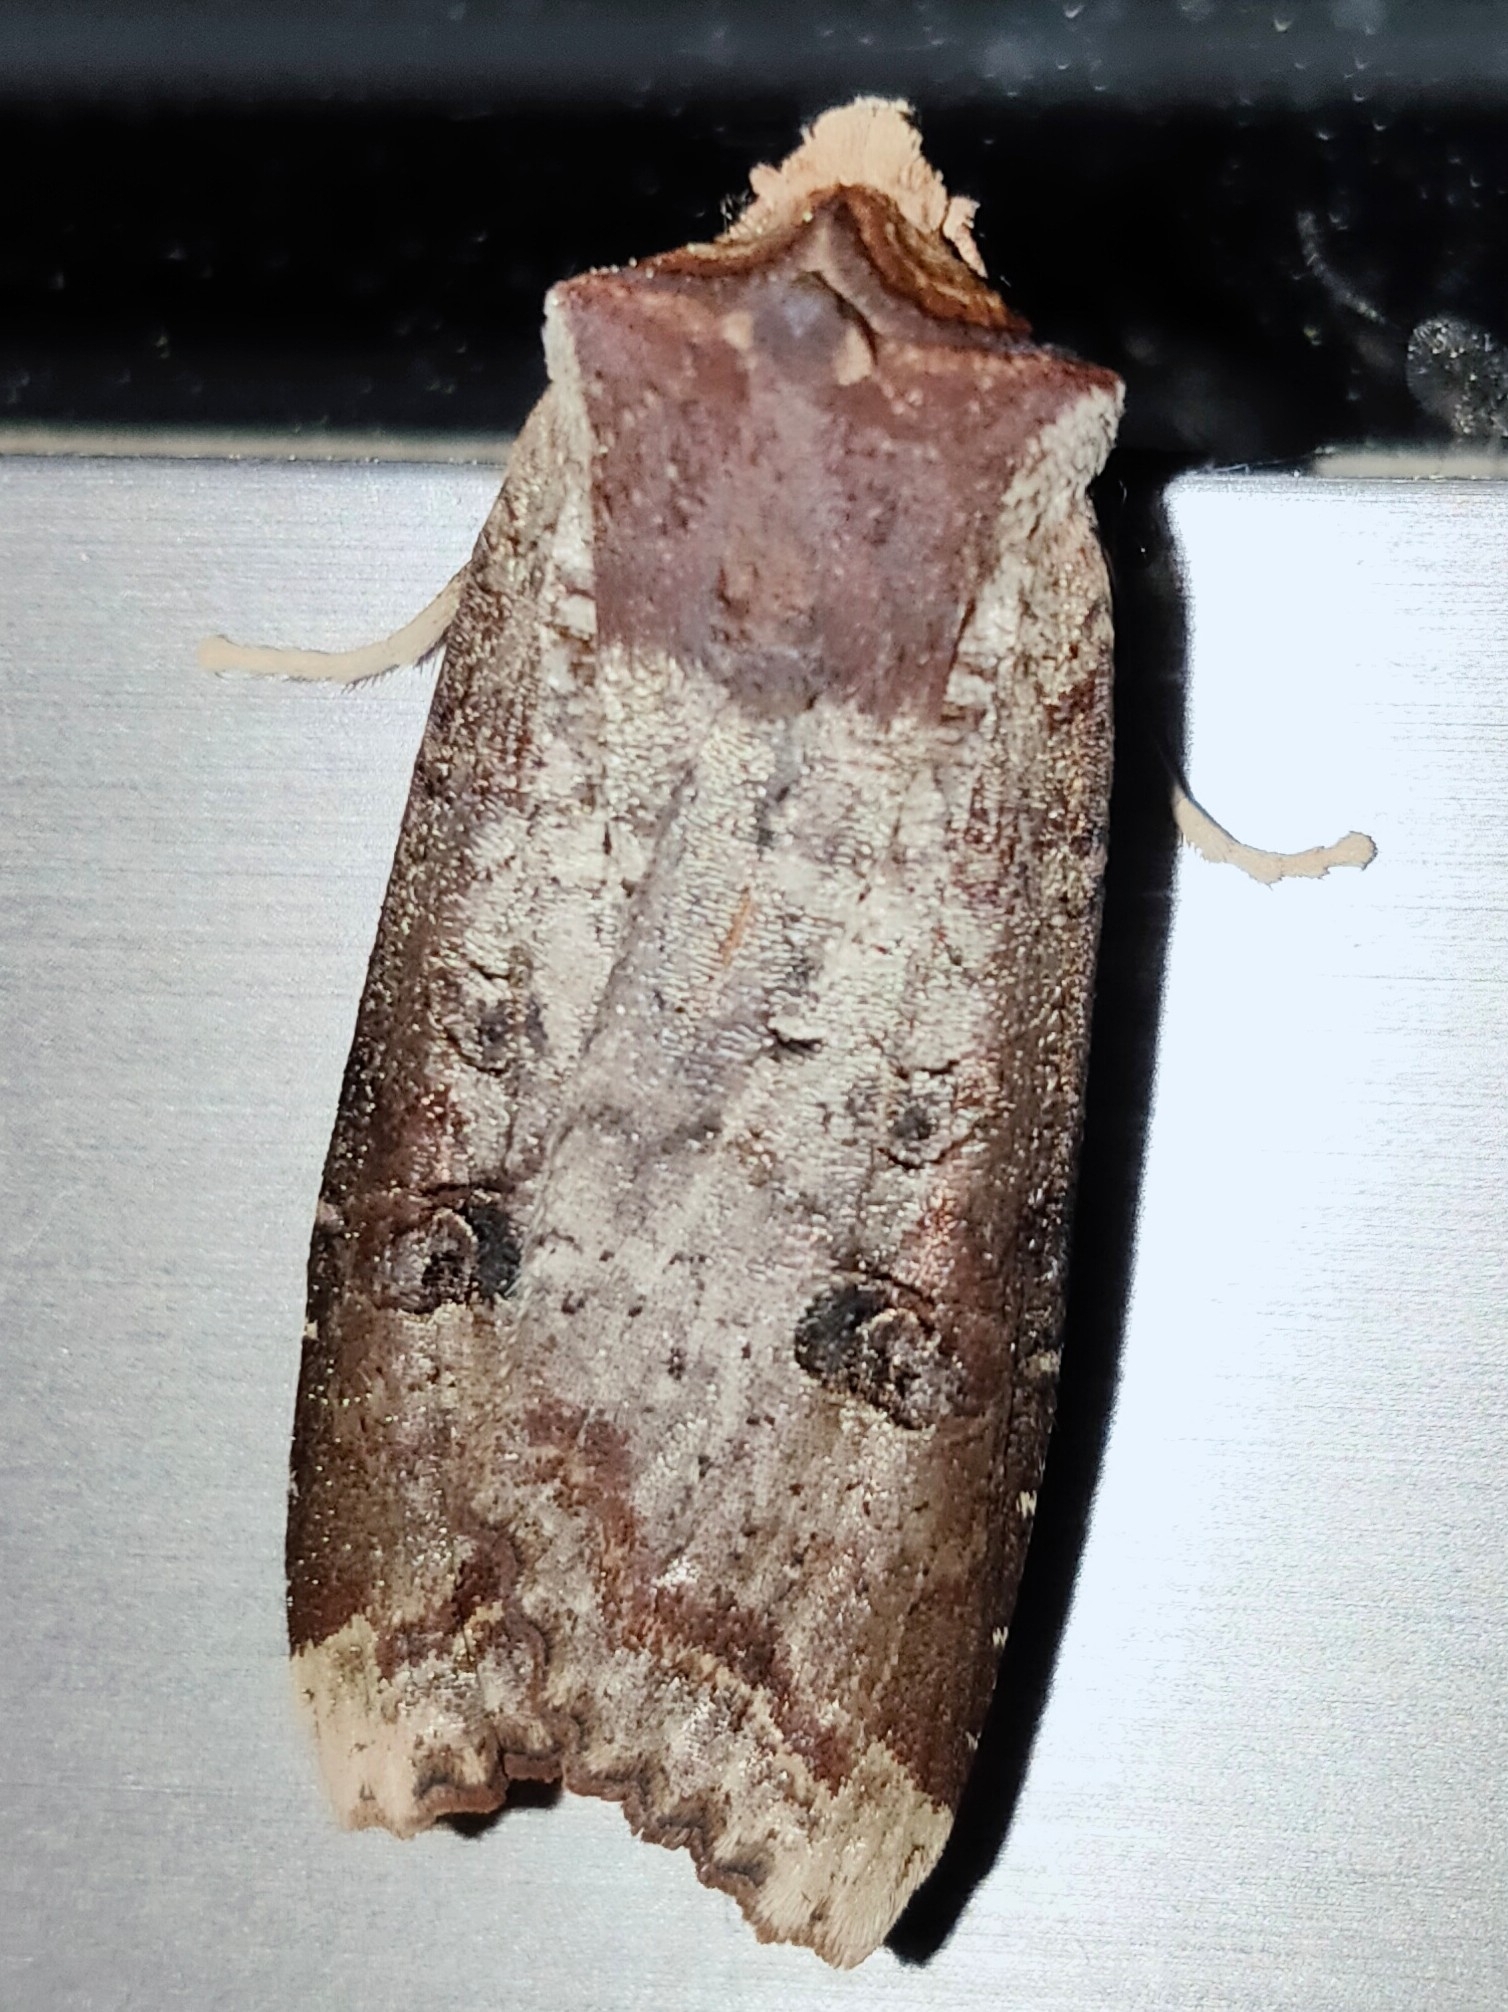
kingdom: Animalia
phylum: Arthropoda
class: Insecta
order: Lepidoptera
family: Noctuidae
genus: Xylena
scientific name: Xylena formosa
